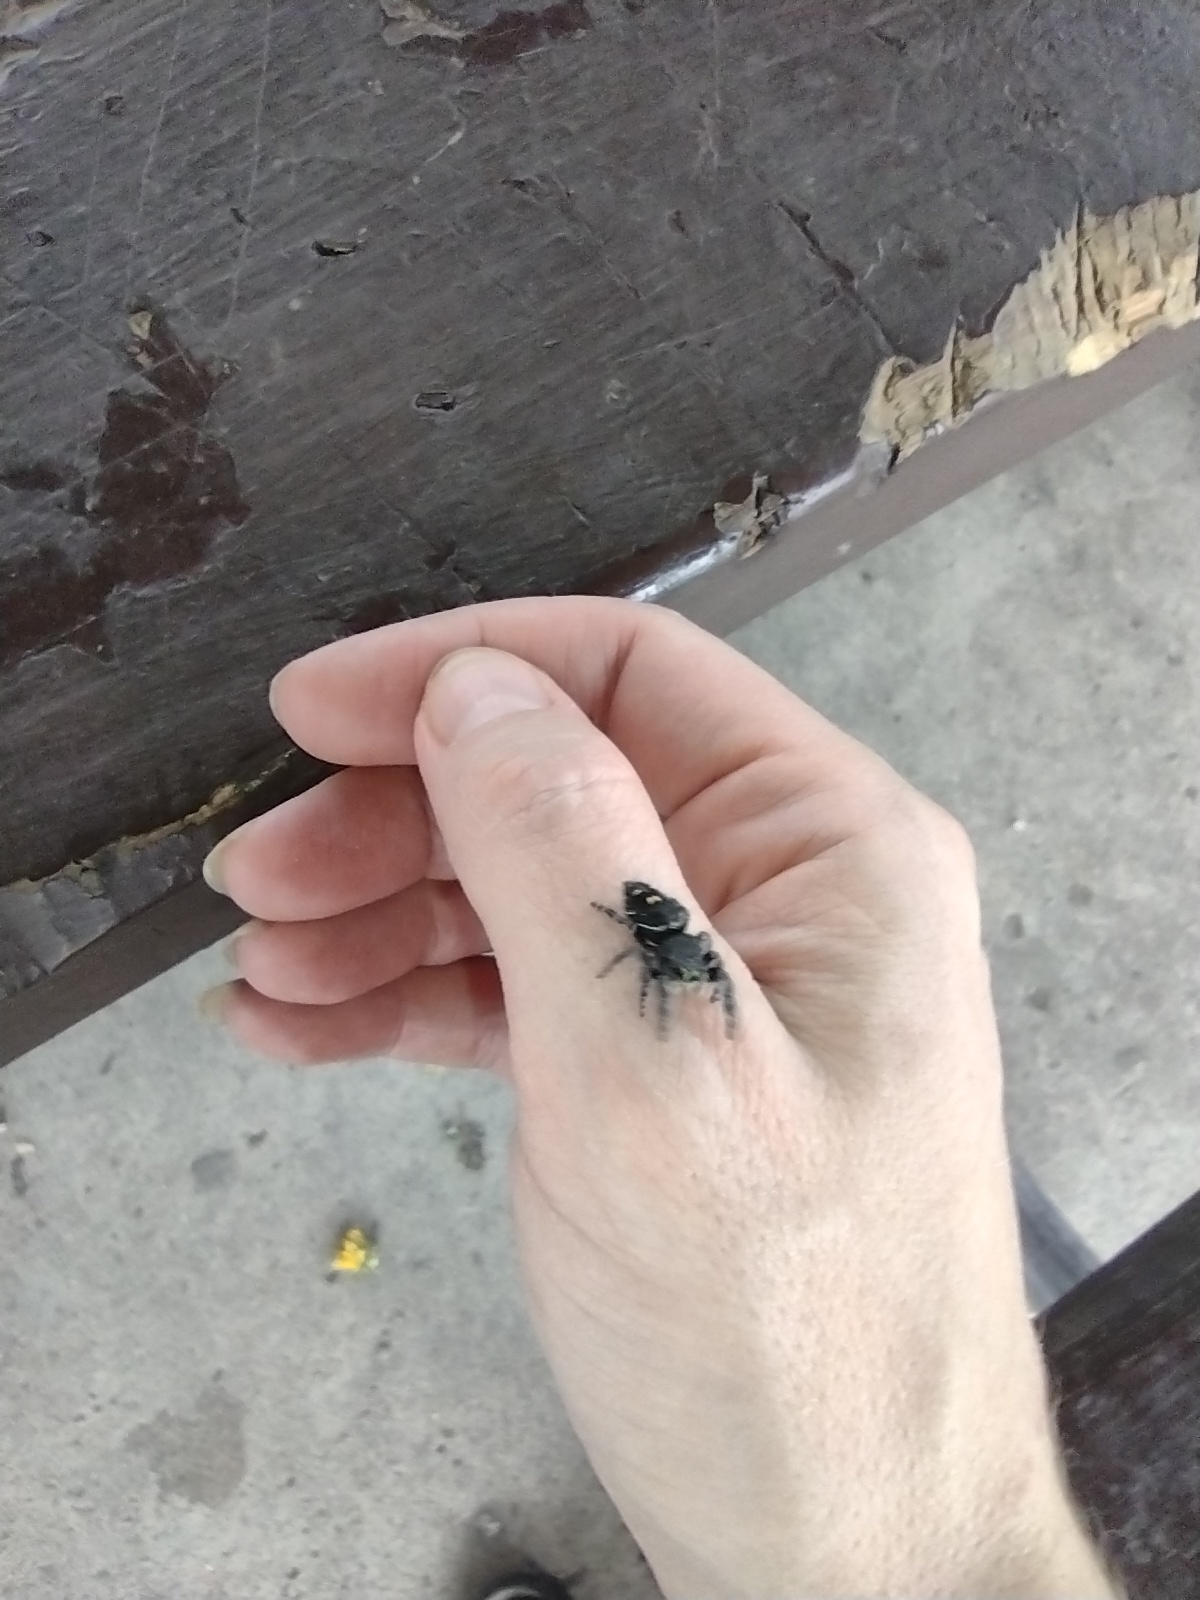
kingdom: Animalia
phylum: Arthropoda
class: Arachnida
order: Araneae
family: Salticidae
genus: Phidippus
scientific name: Phidippus audax
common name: Bold jumper
